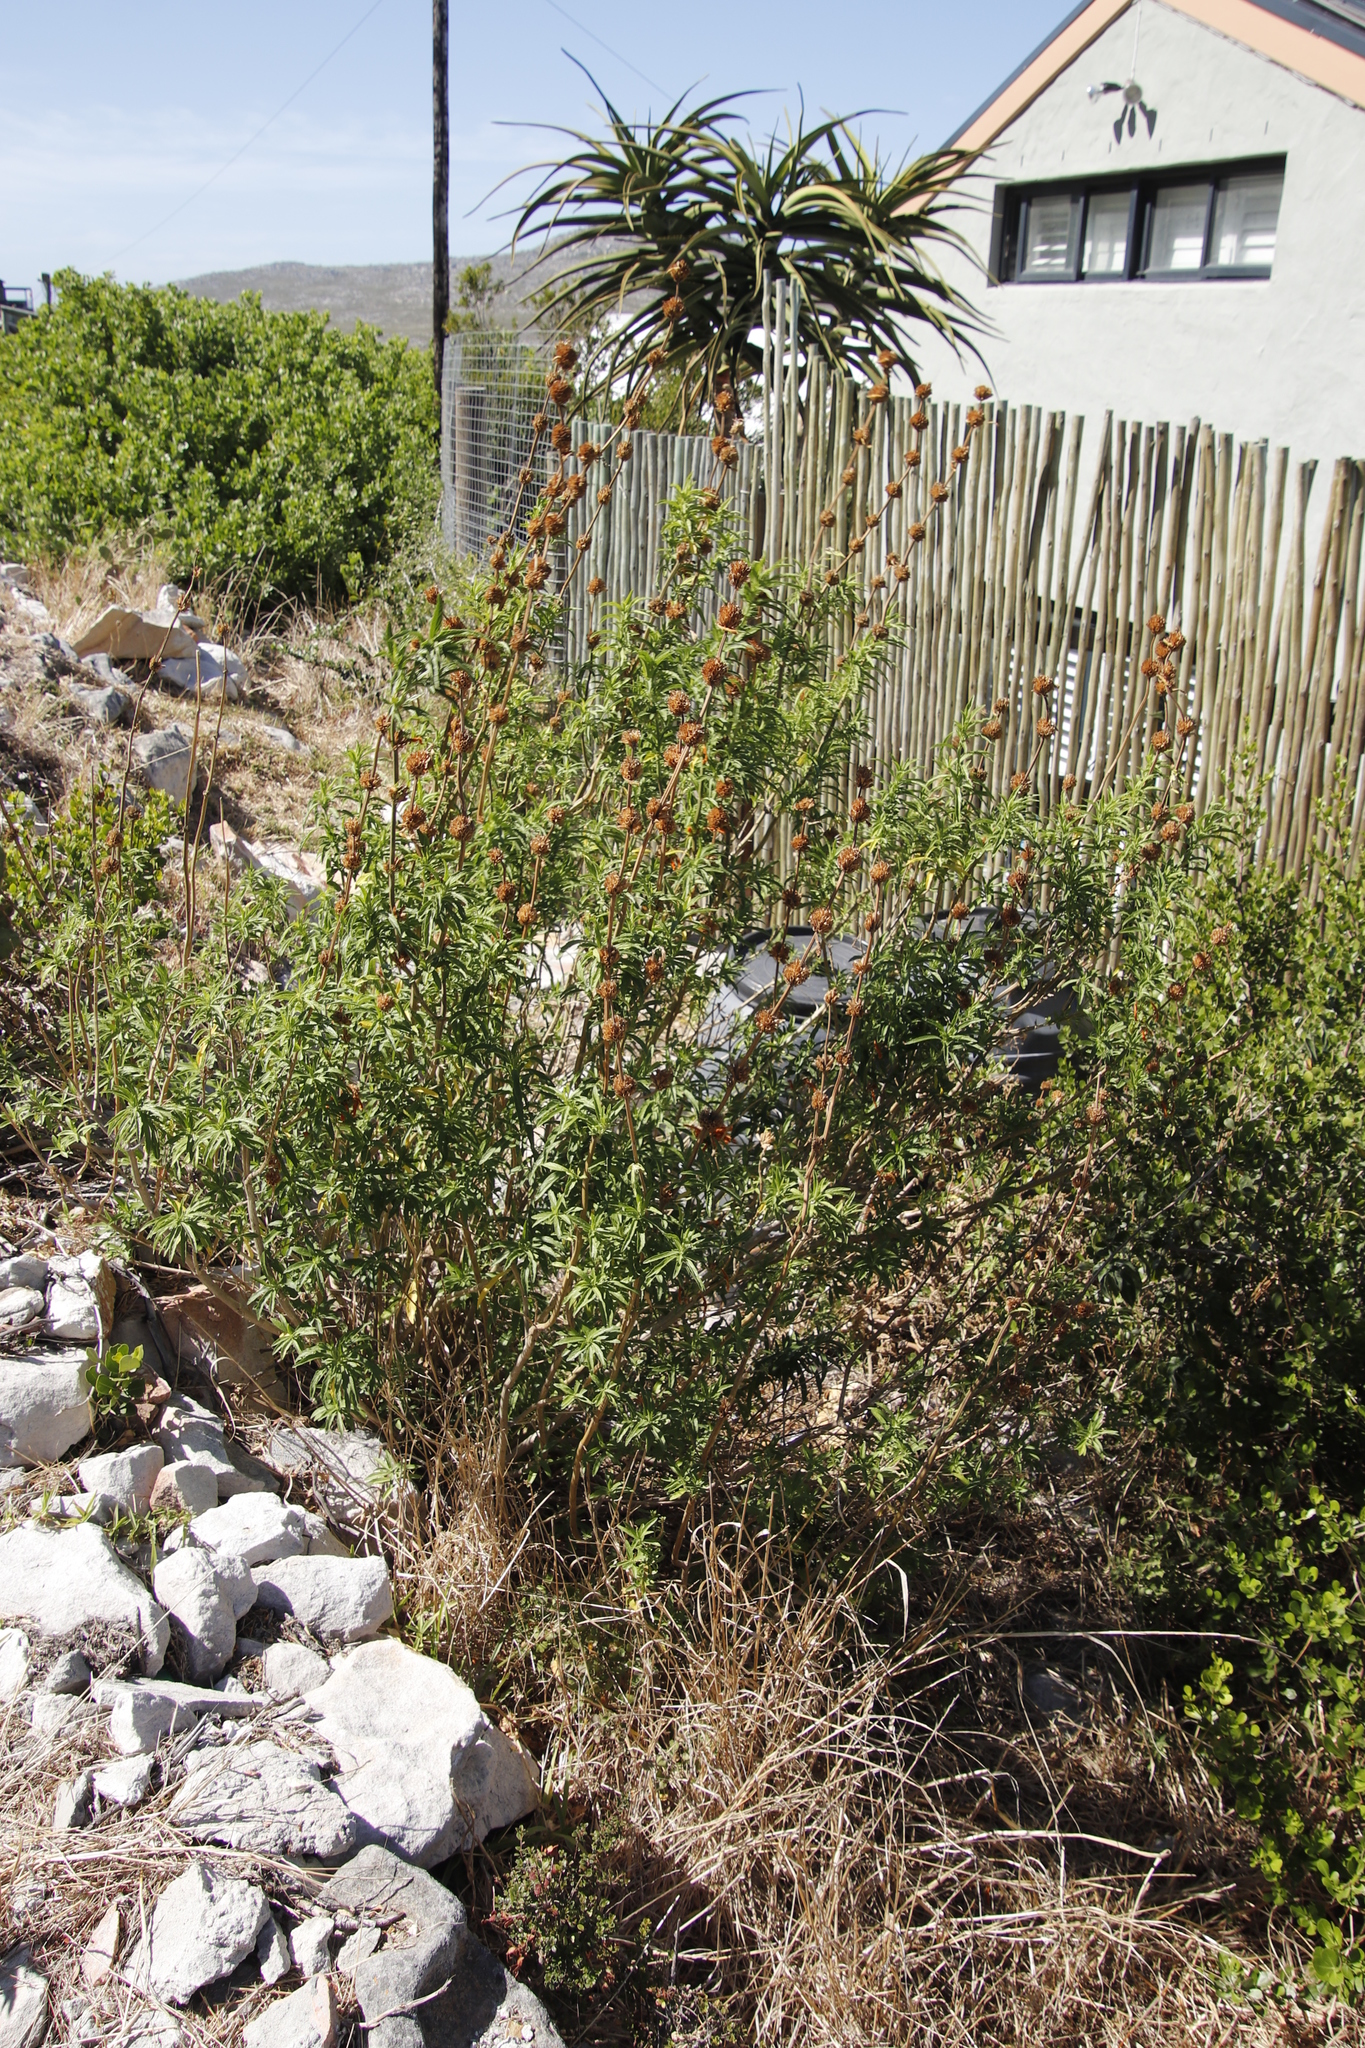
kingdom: Plantae
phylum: Tracheophyta
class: Magnoliopsida
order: Lamiales
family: Lamiaceae
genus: Leonotis
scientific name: Leonotis leonurus
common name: Lion's ear
